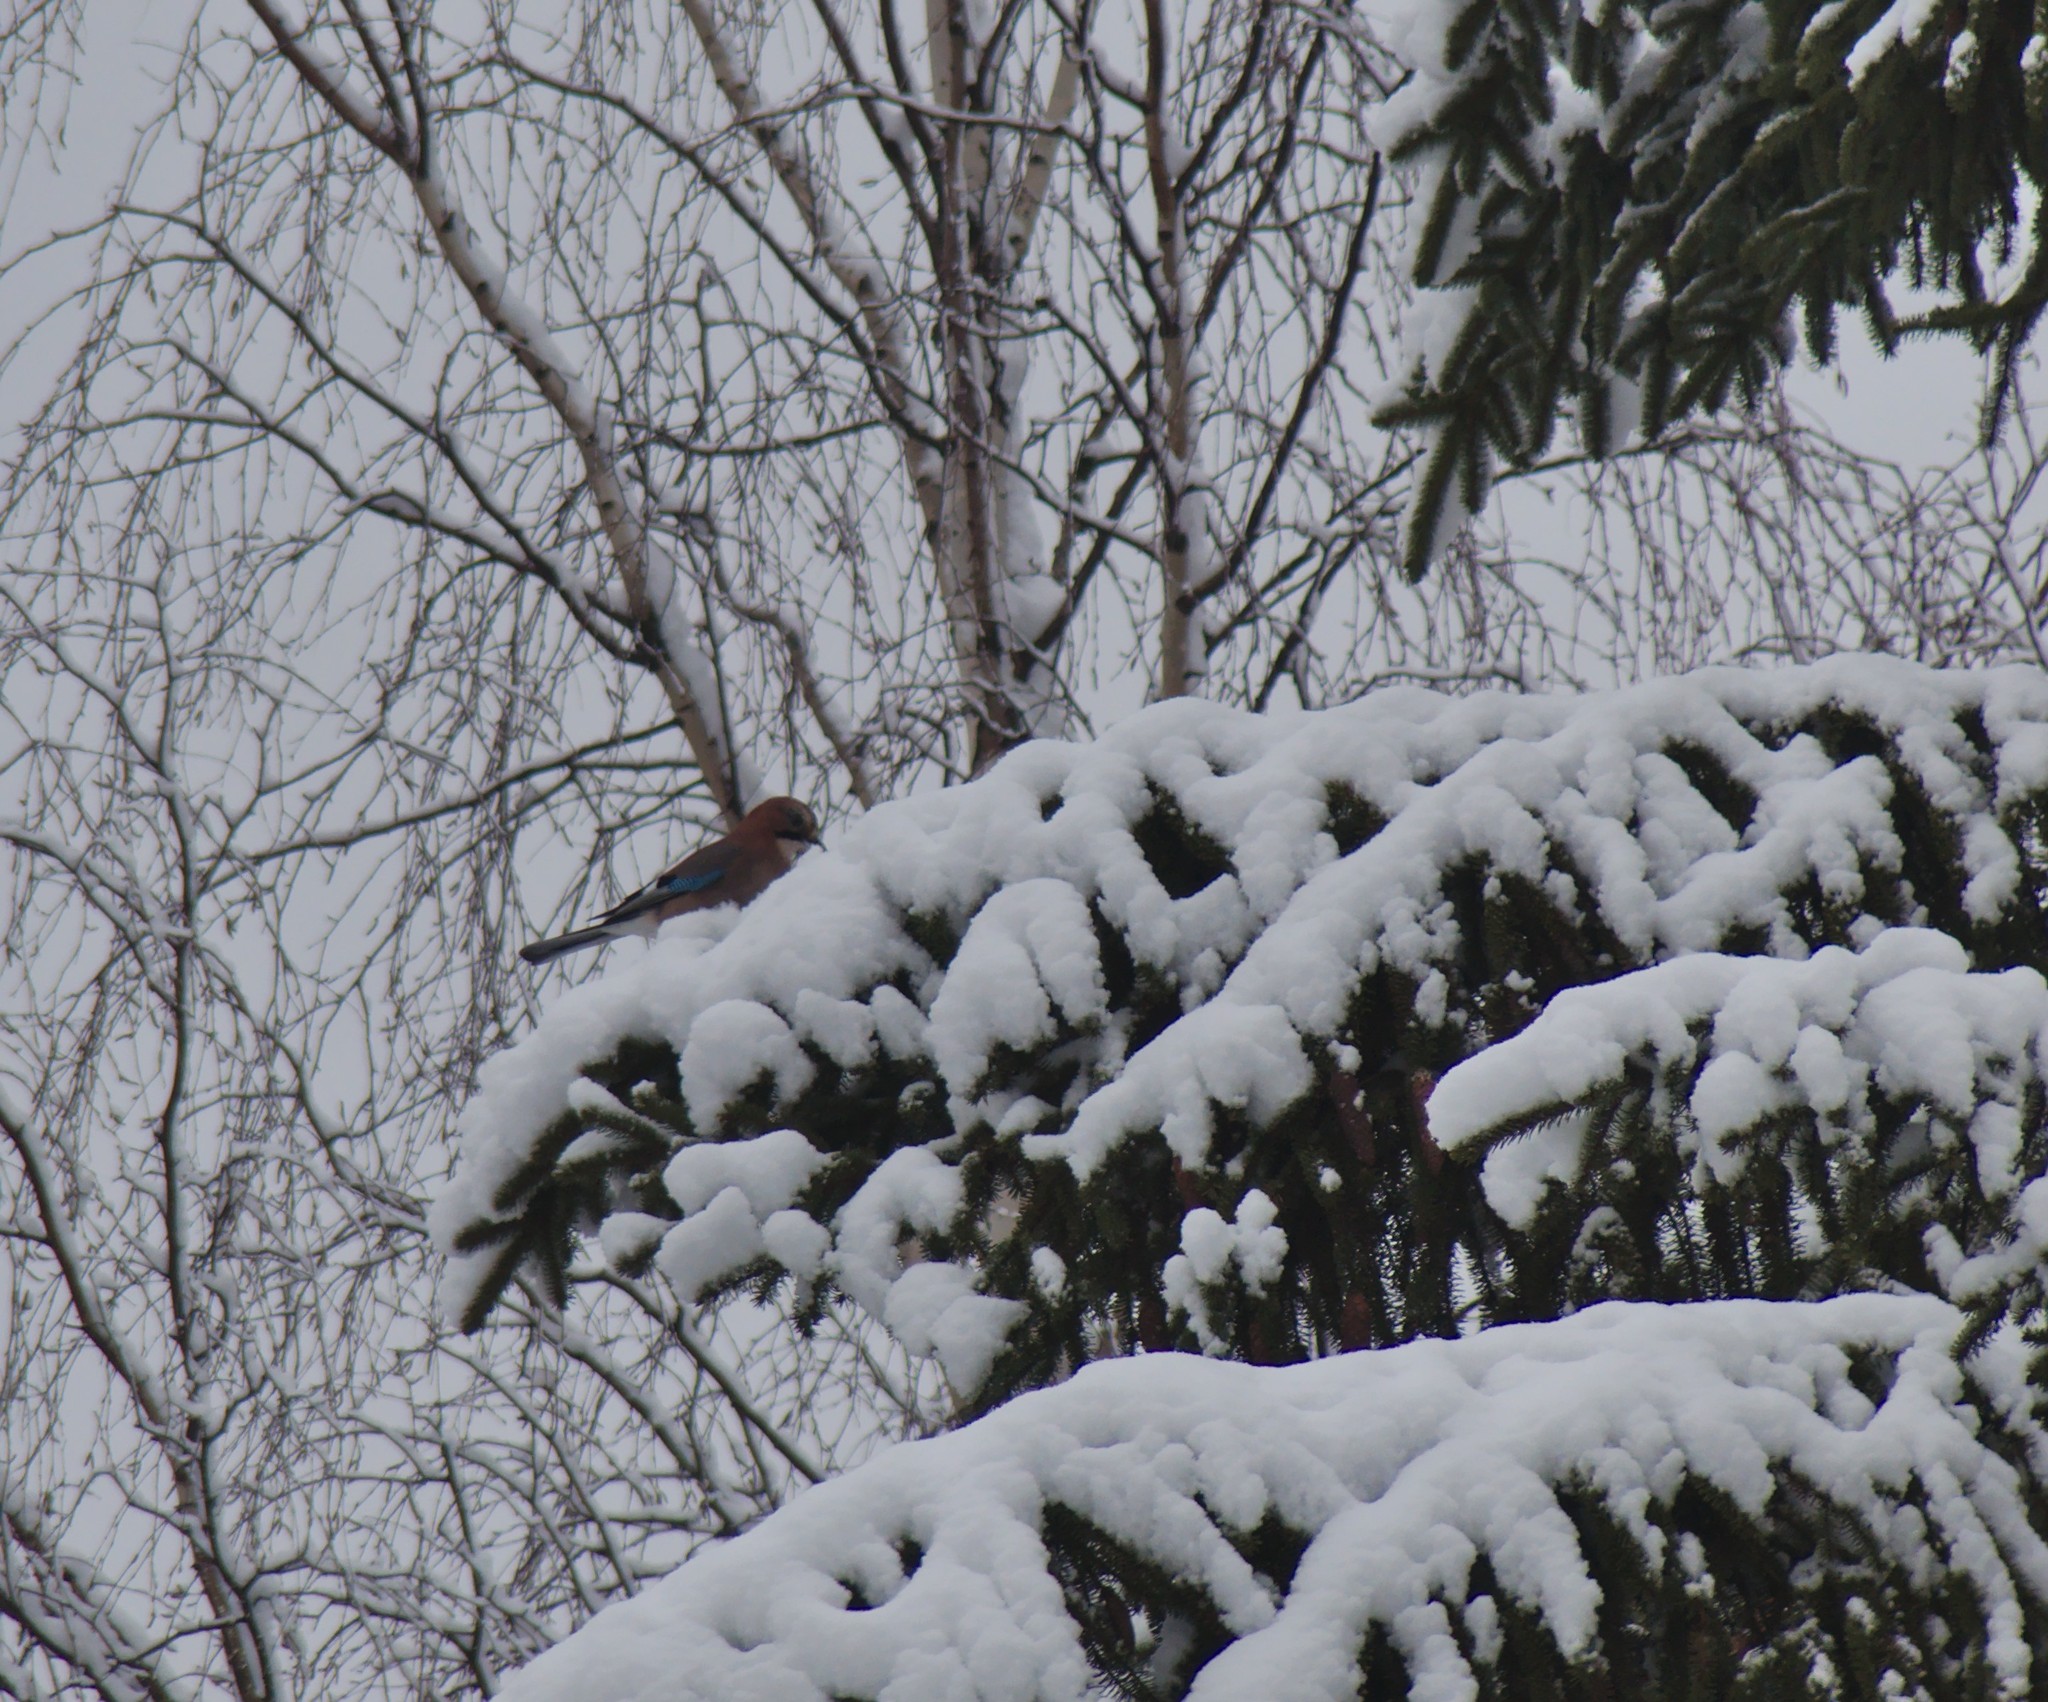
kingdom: Animalia
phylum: Chordata
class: Aves
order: Passeriformes
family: Corvidae
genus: Garrulus
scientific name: Garrulus glandarius
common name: Eurasian jay
